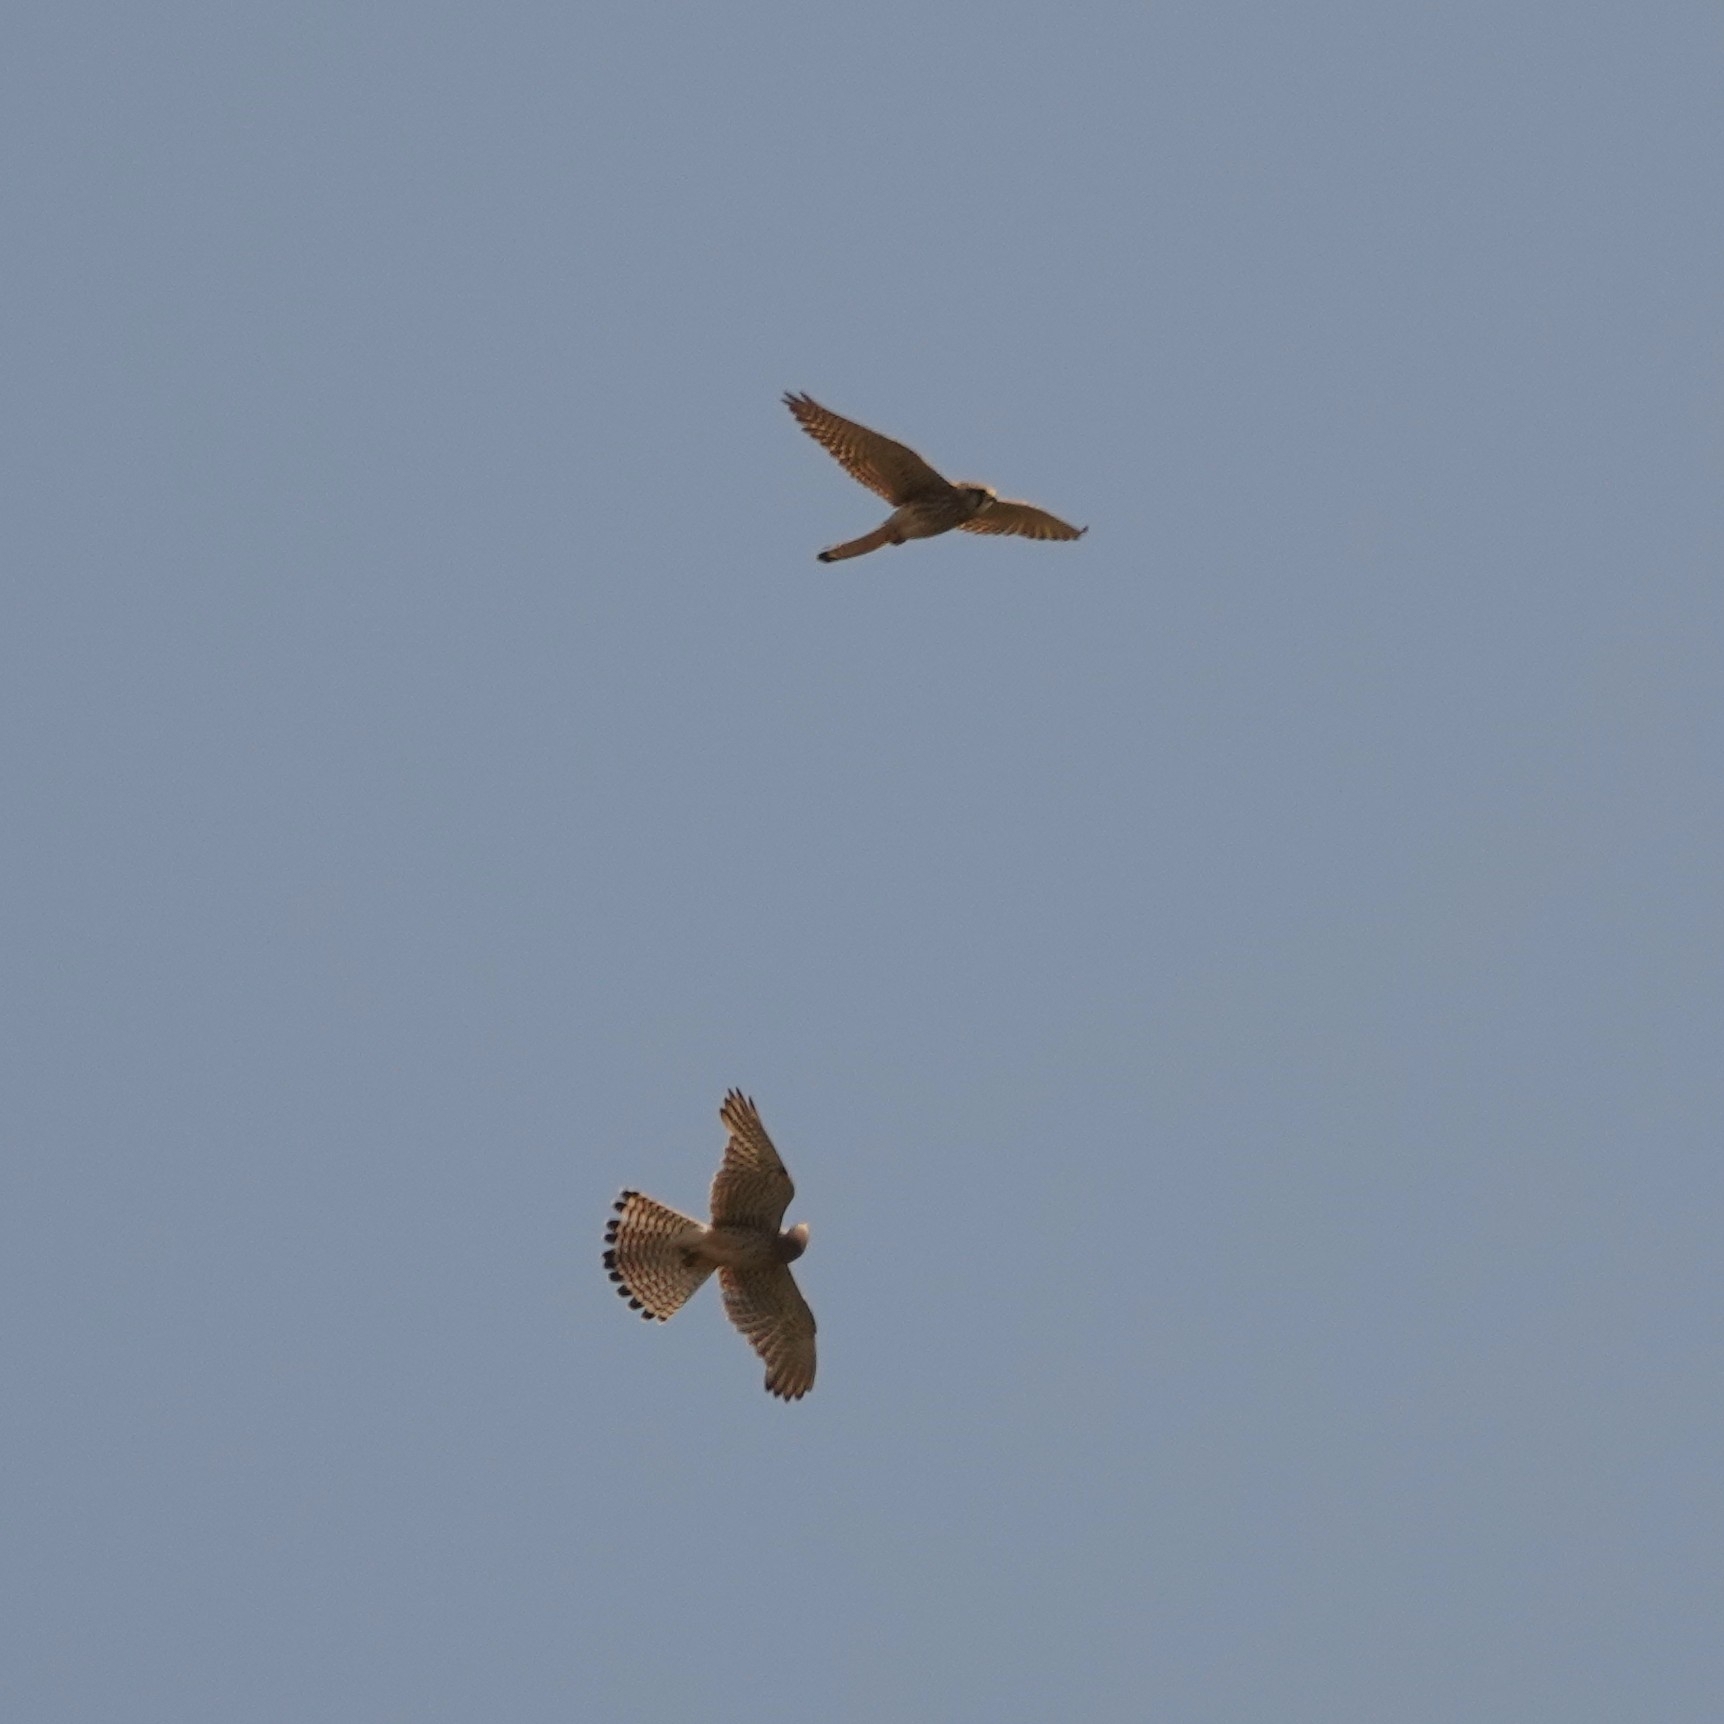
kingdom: Animalia
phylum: Chordata
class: Aves
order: Falconiformes
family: Falconidae
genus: Falco
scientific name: Falco tinnunculus
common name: Common kestrel
